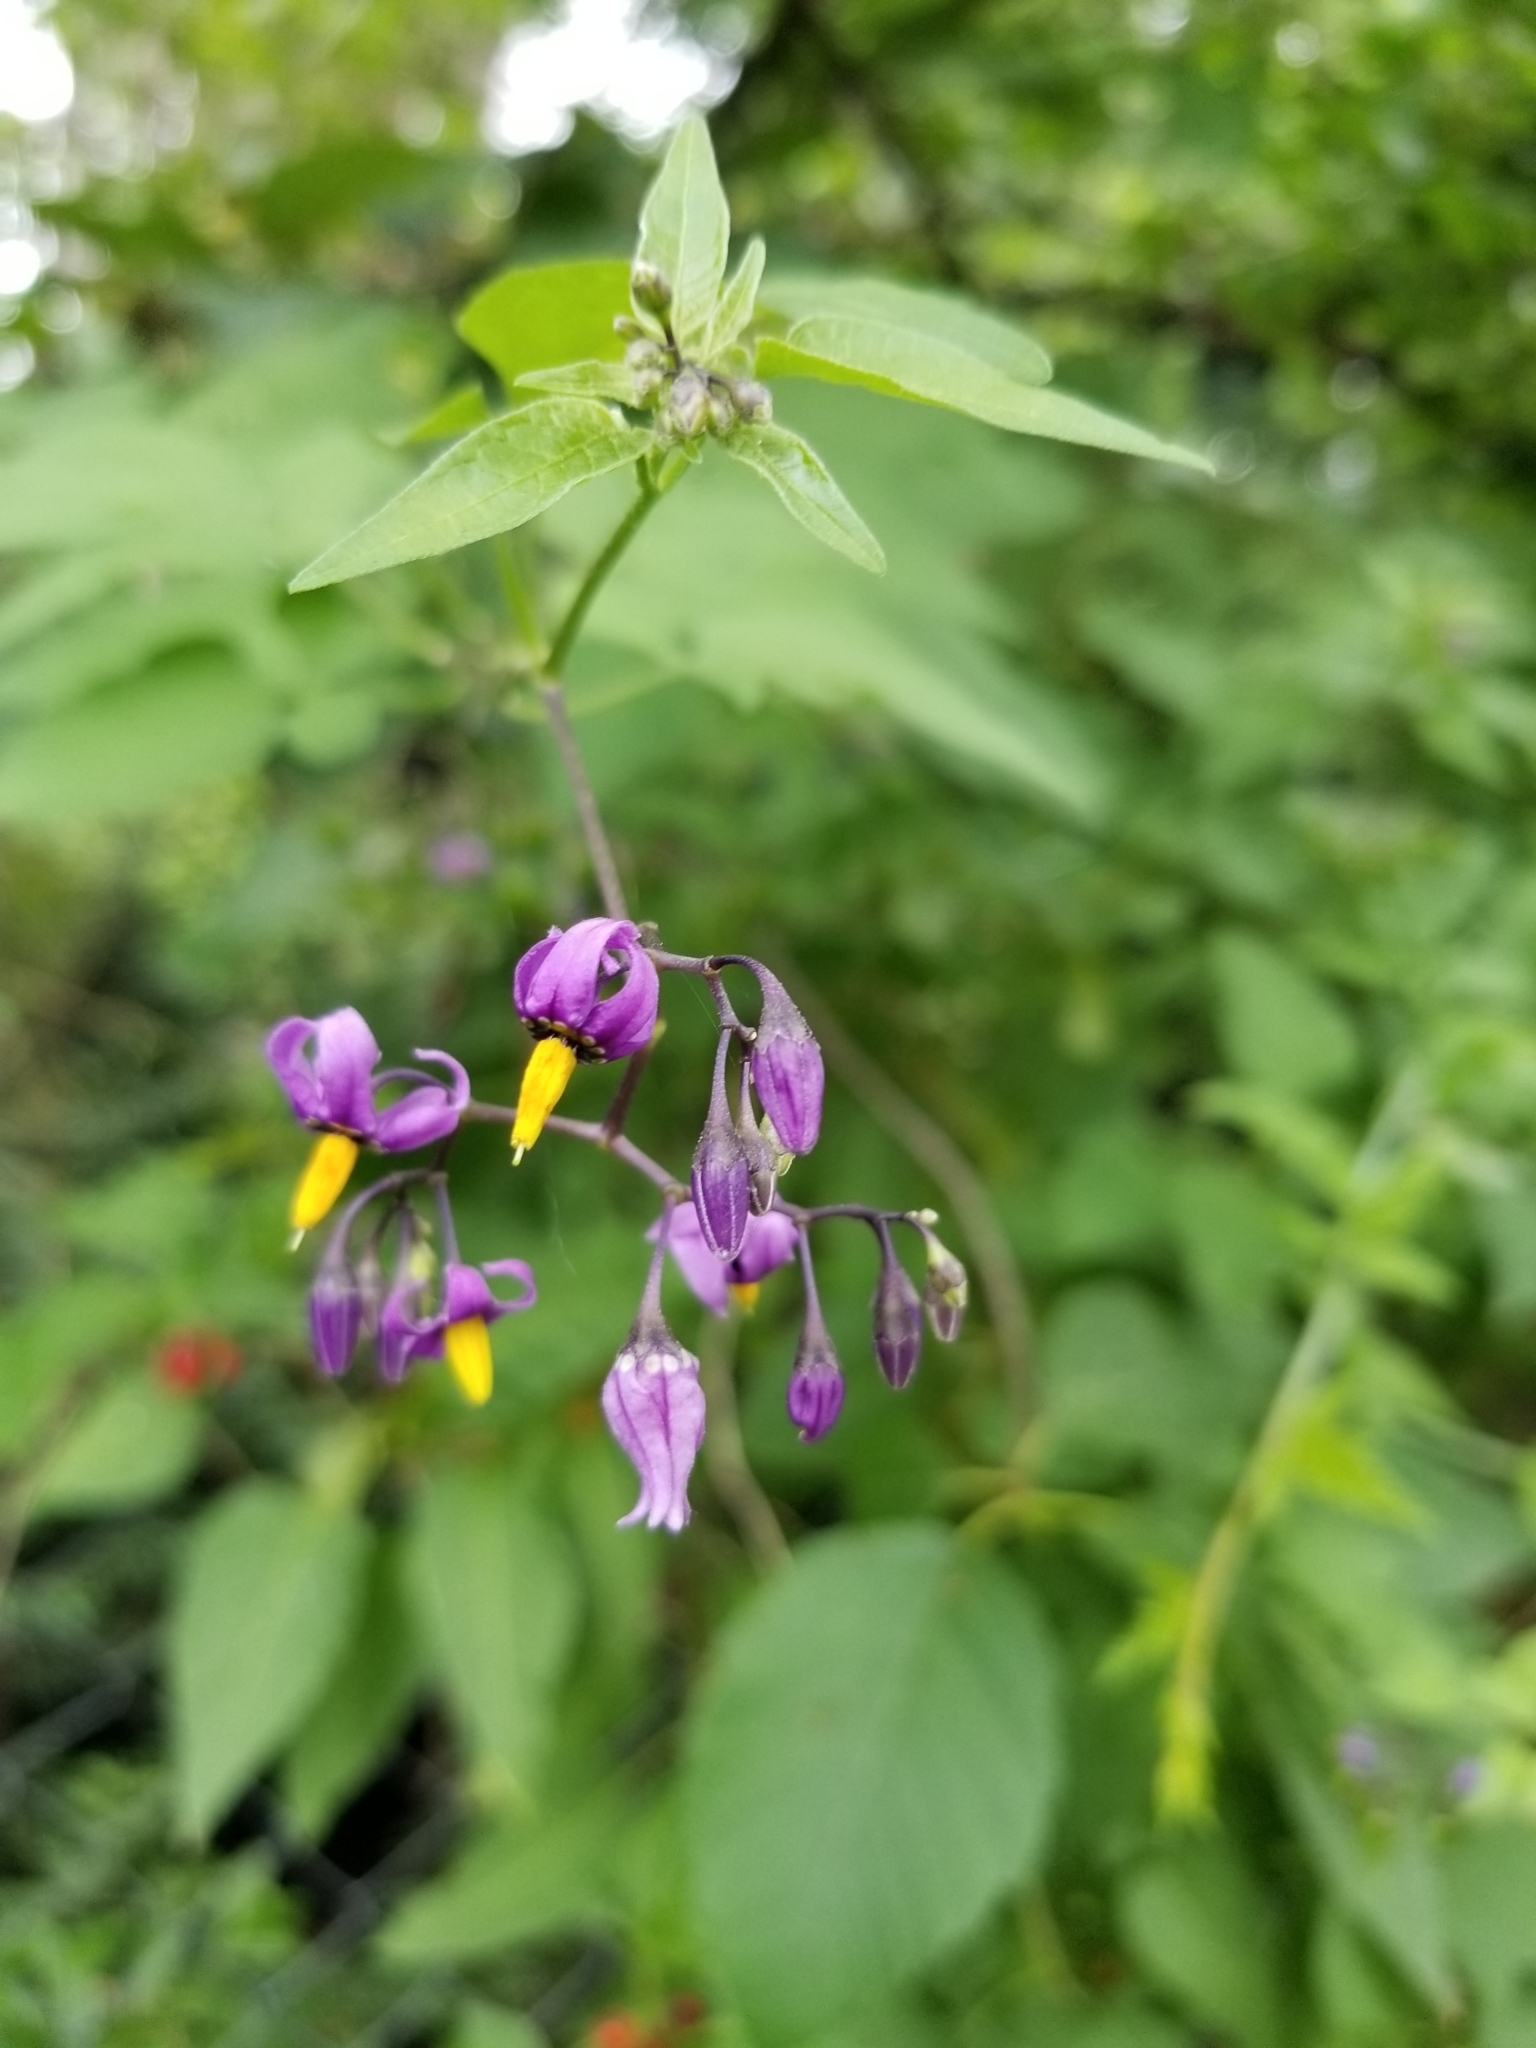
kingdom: Plantae
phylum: Tracheophyta
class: Magnoliopsida
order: Solanales
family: Solanaceae
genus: Solanum
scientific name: Solanum dulcamara
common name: Climbing nightshade
